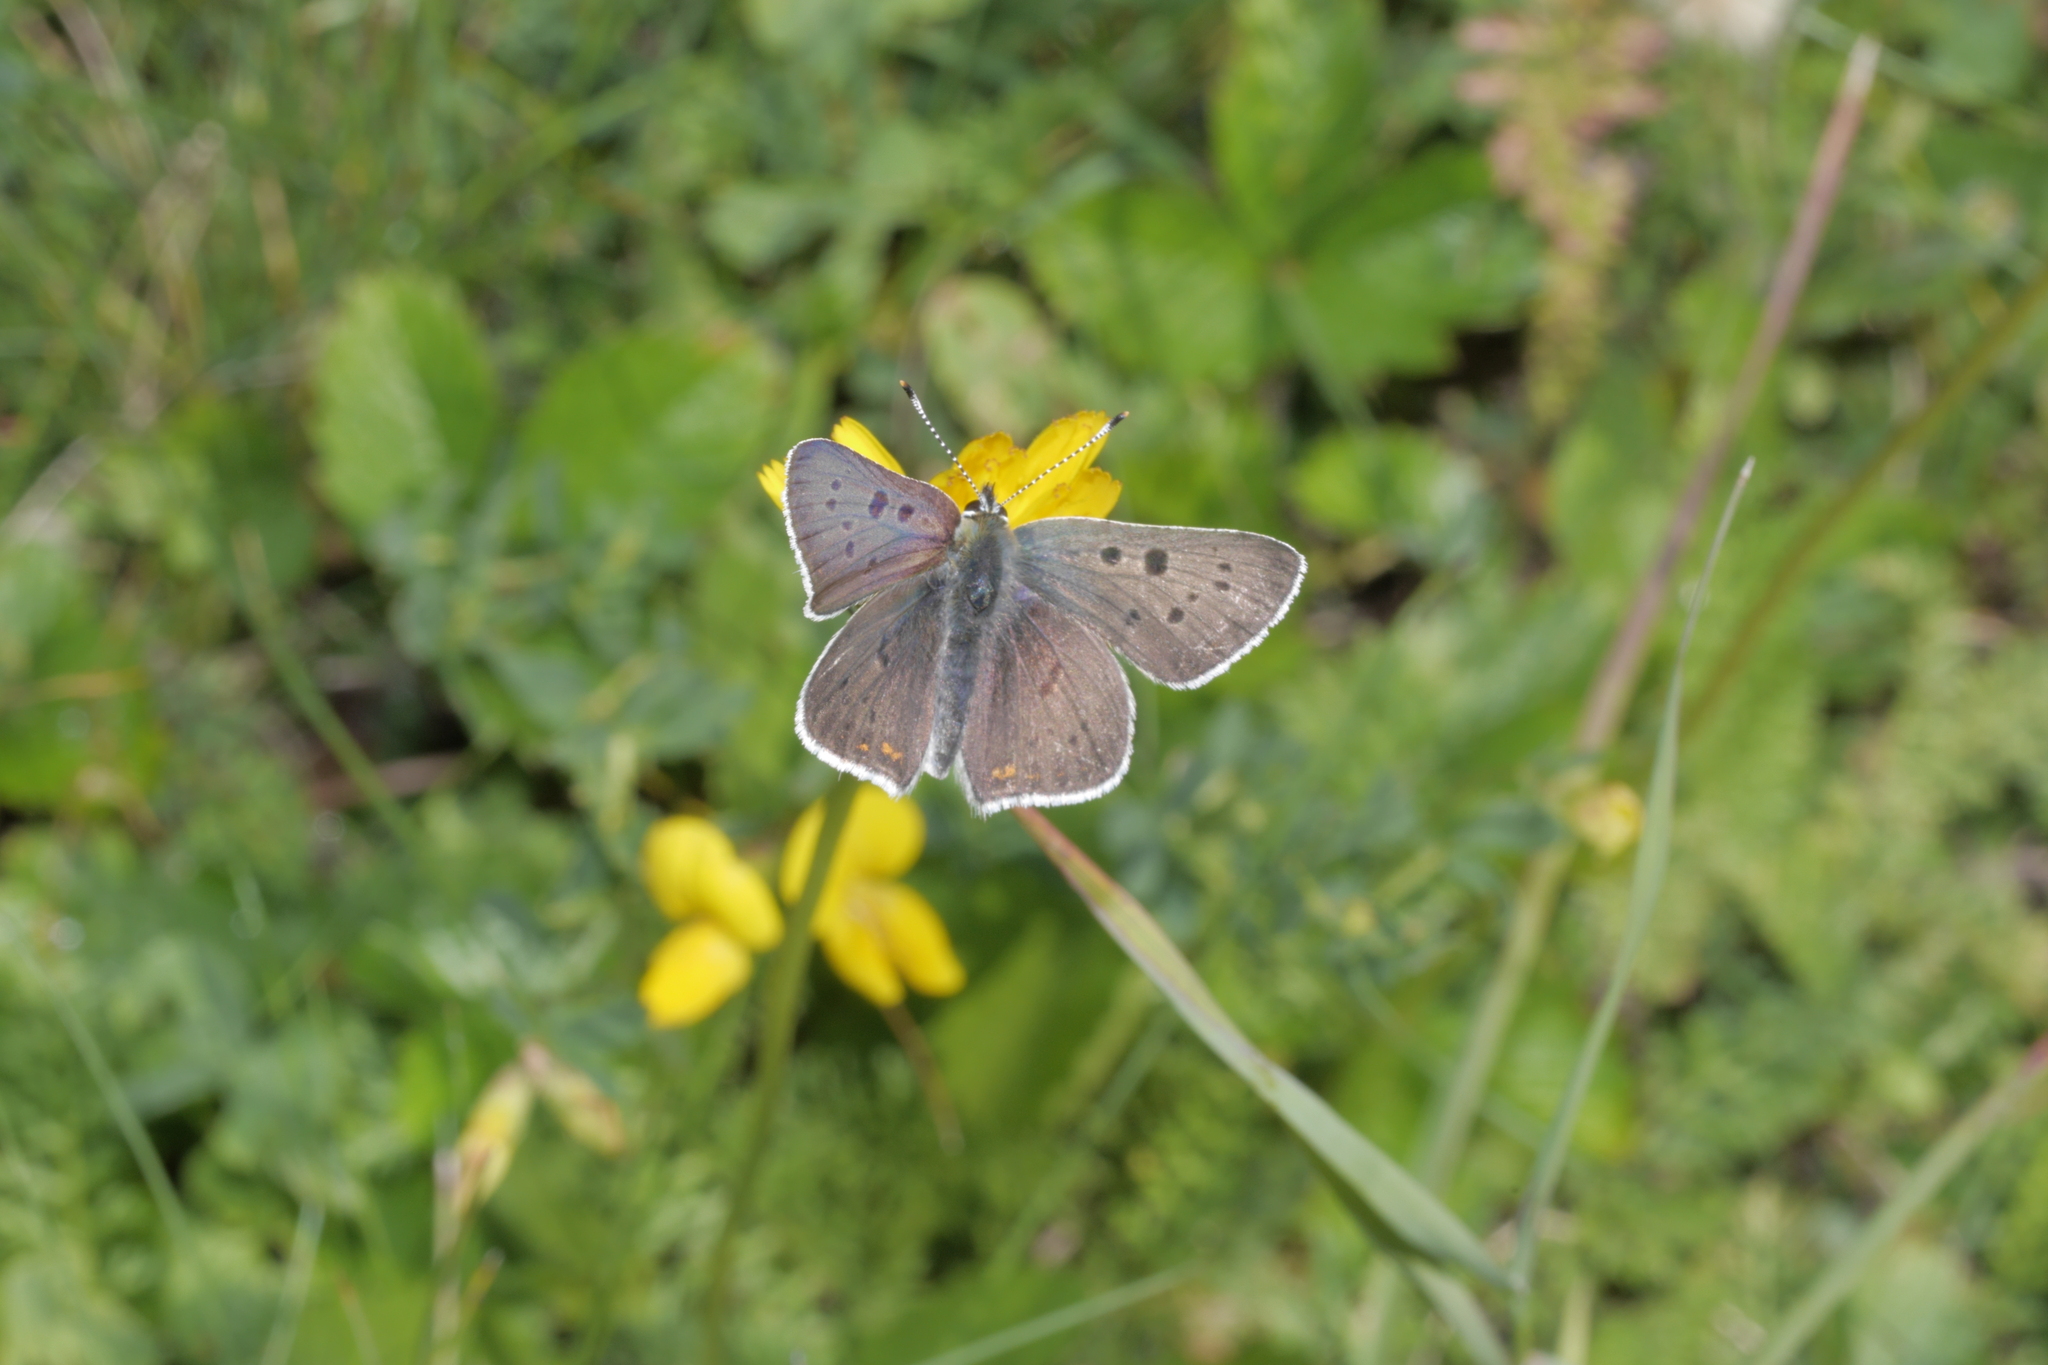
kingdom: Animalia
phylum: Arthropoda
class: Insecta
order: Lepidoptera
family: Lycaenidae
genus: Loweia
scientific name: Loweia tityrus
